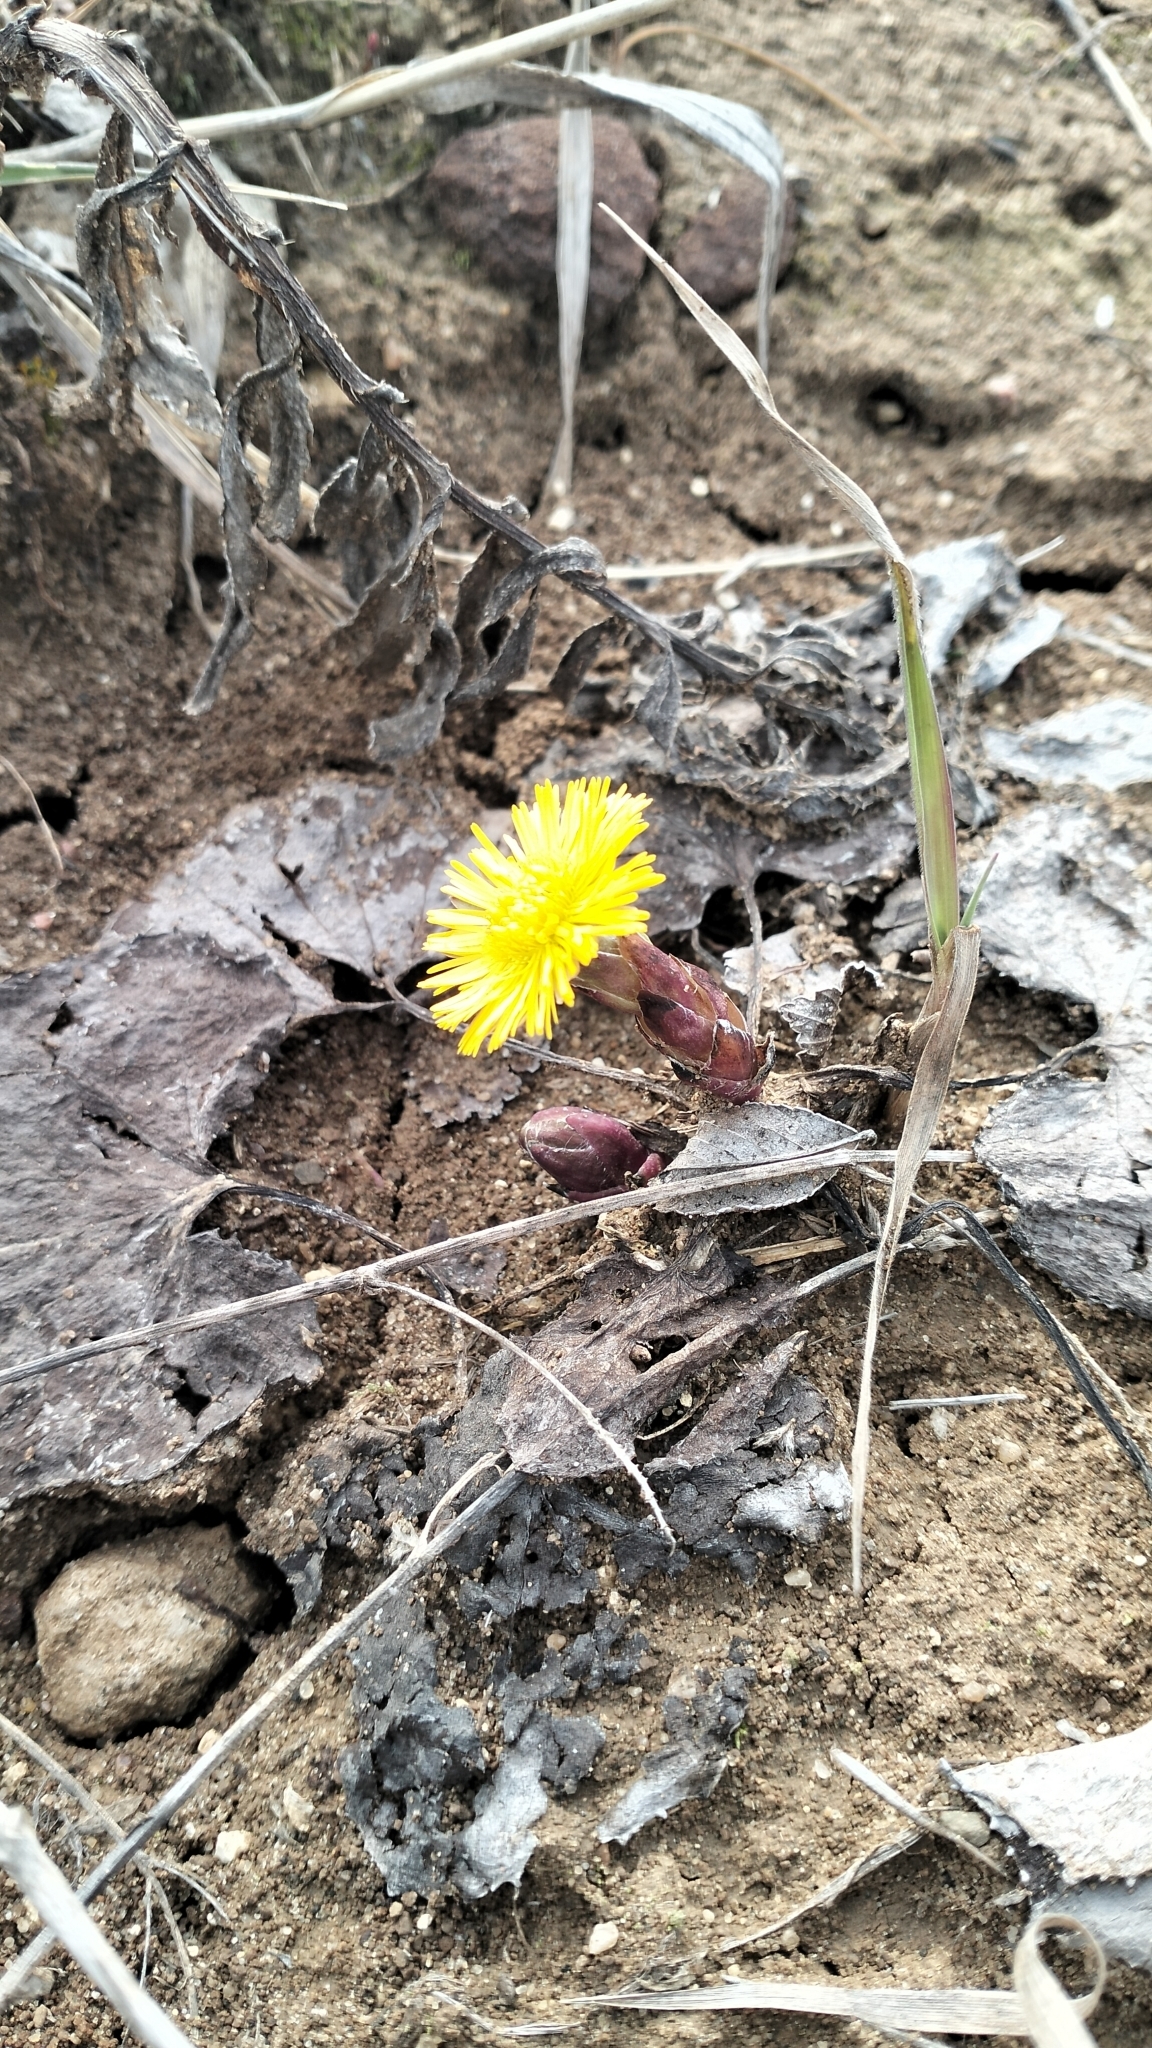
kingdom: Plantae
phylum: Tracheophyta
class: Magnoliopsida
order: Asterales
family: Asteraceae
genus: Tussilago
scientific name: Tussilago farfara
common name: Coltsfoot
